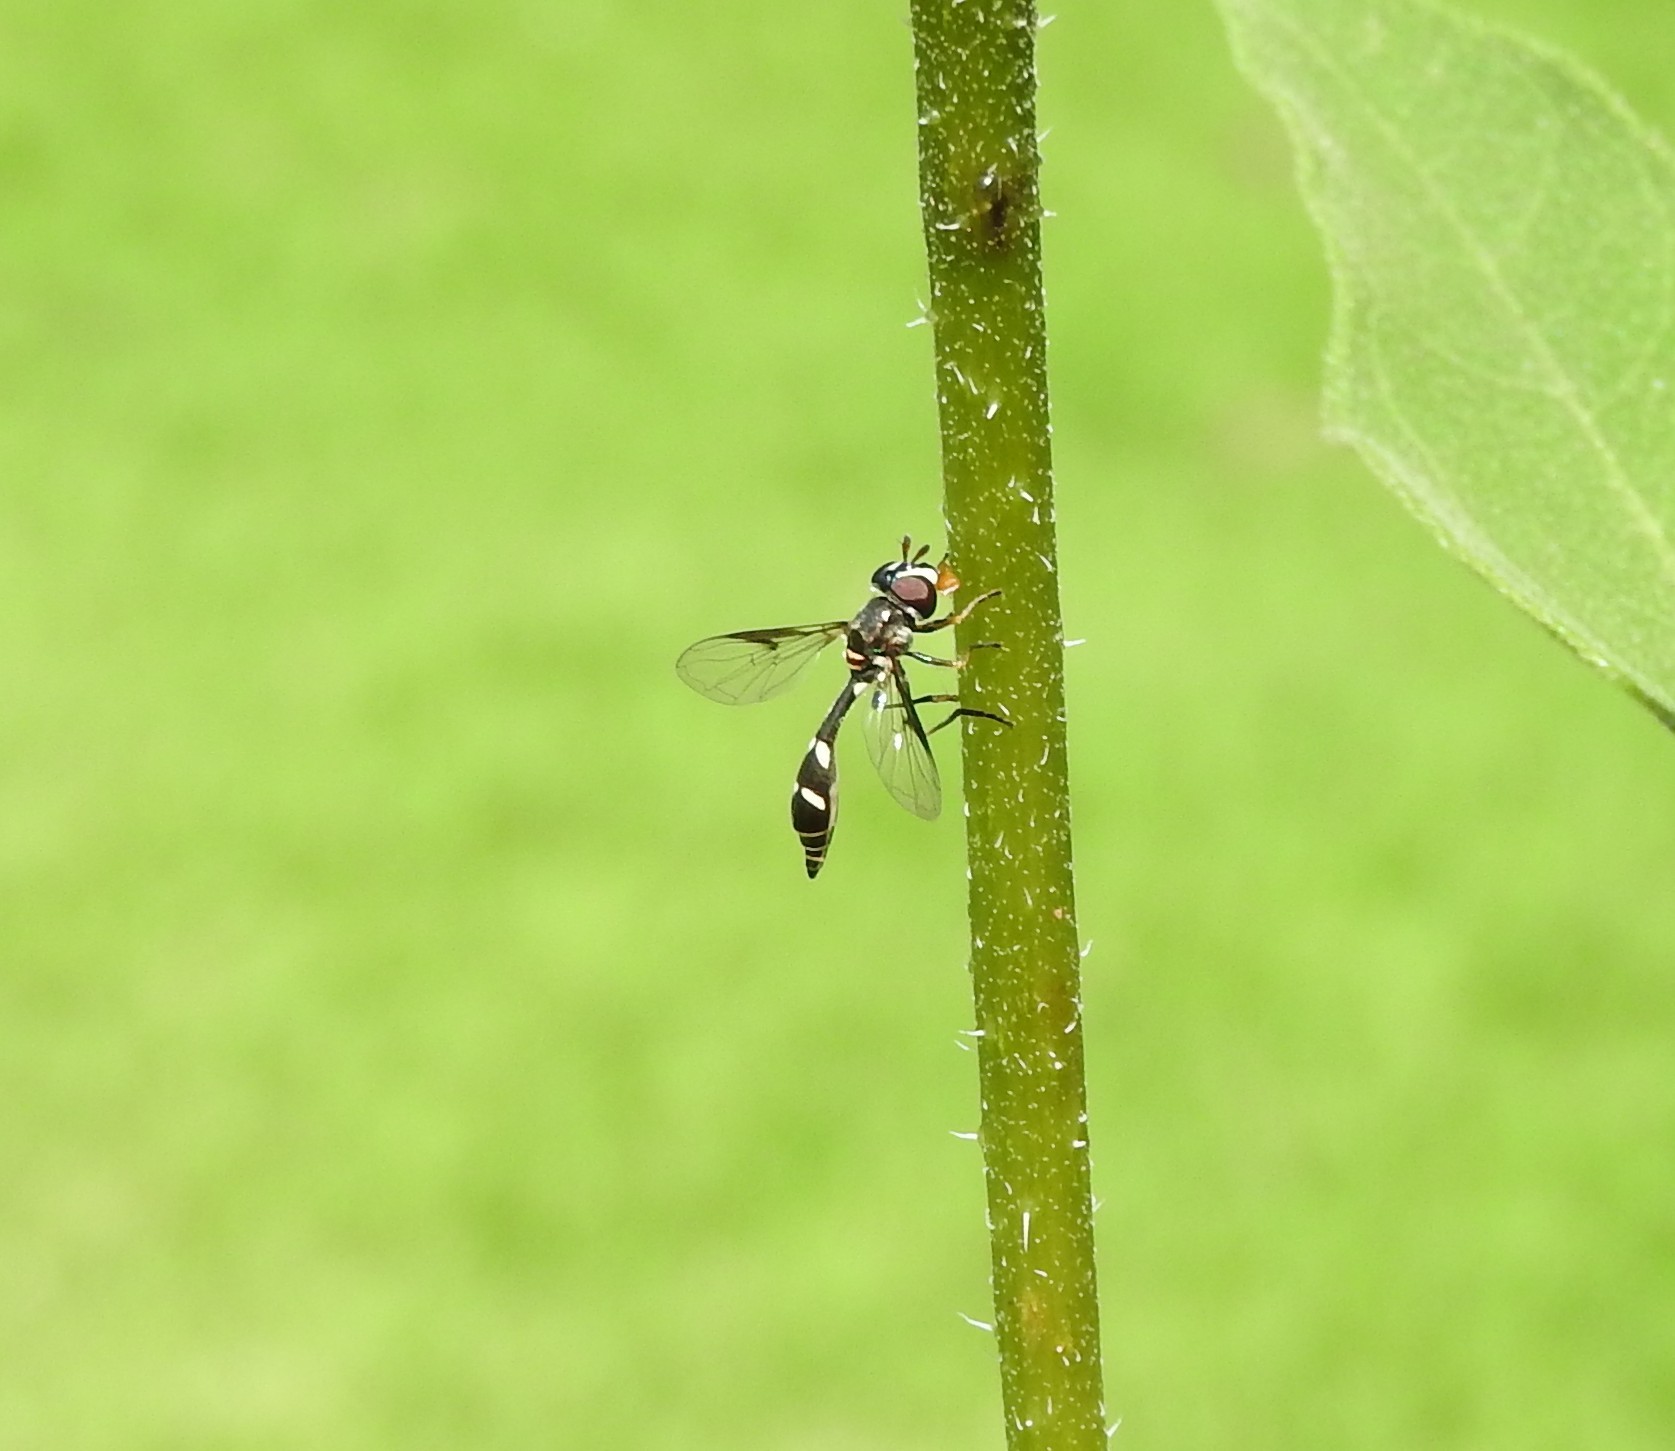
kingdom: Animalia
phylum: Arthropoda
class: Insecta
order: Diptera
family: Syrphidae
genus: Dioprosopa
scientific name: Dioprosopa clavatus
